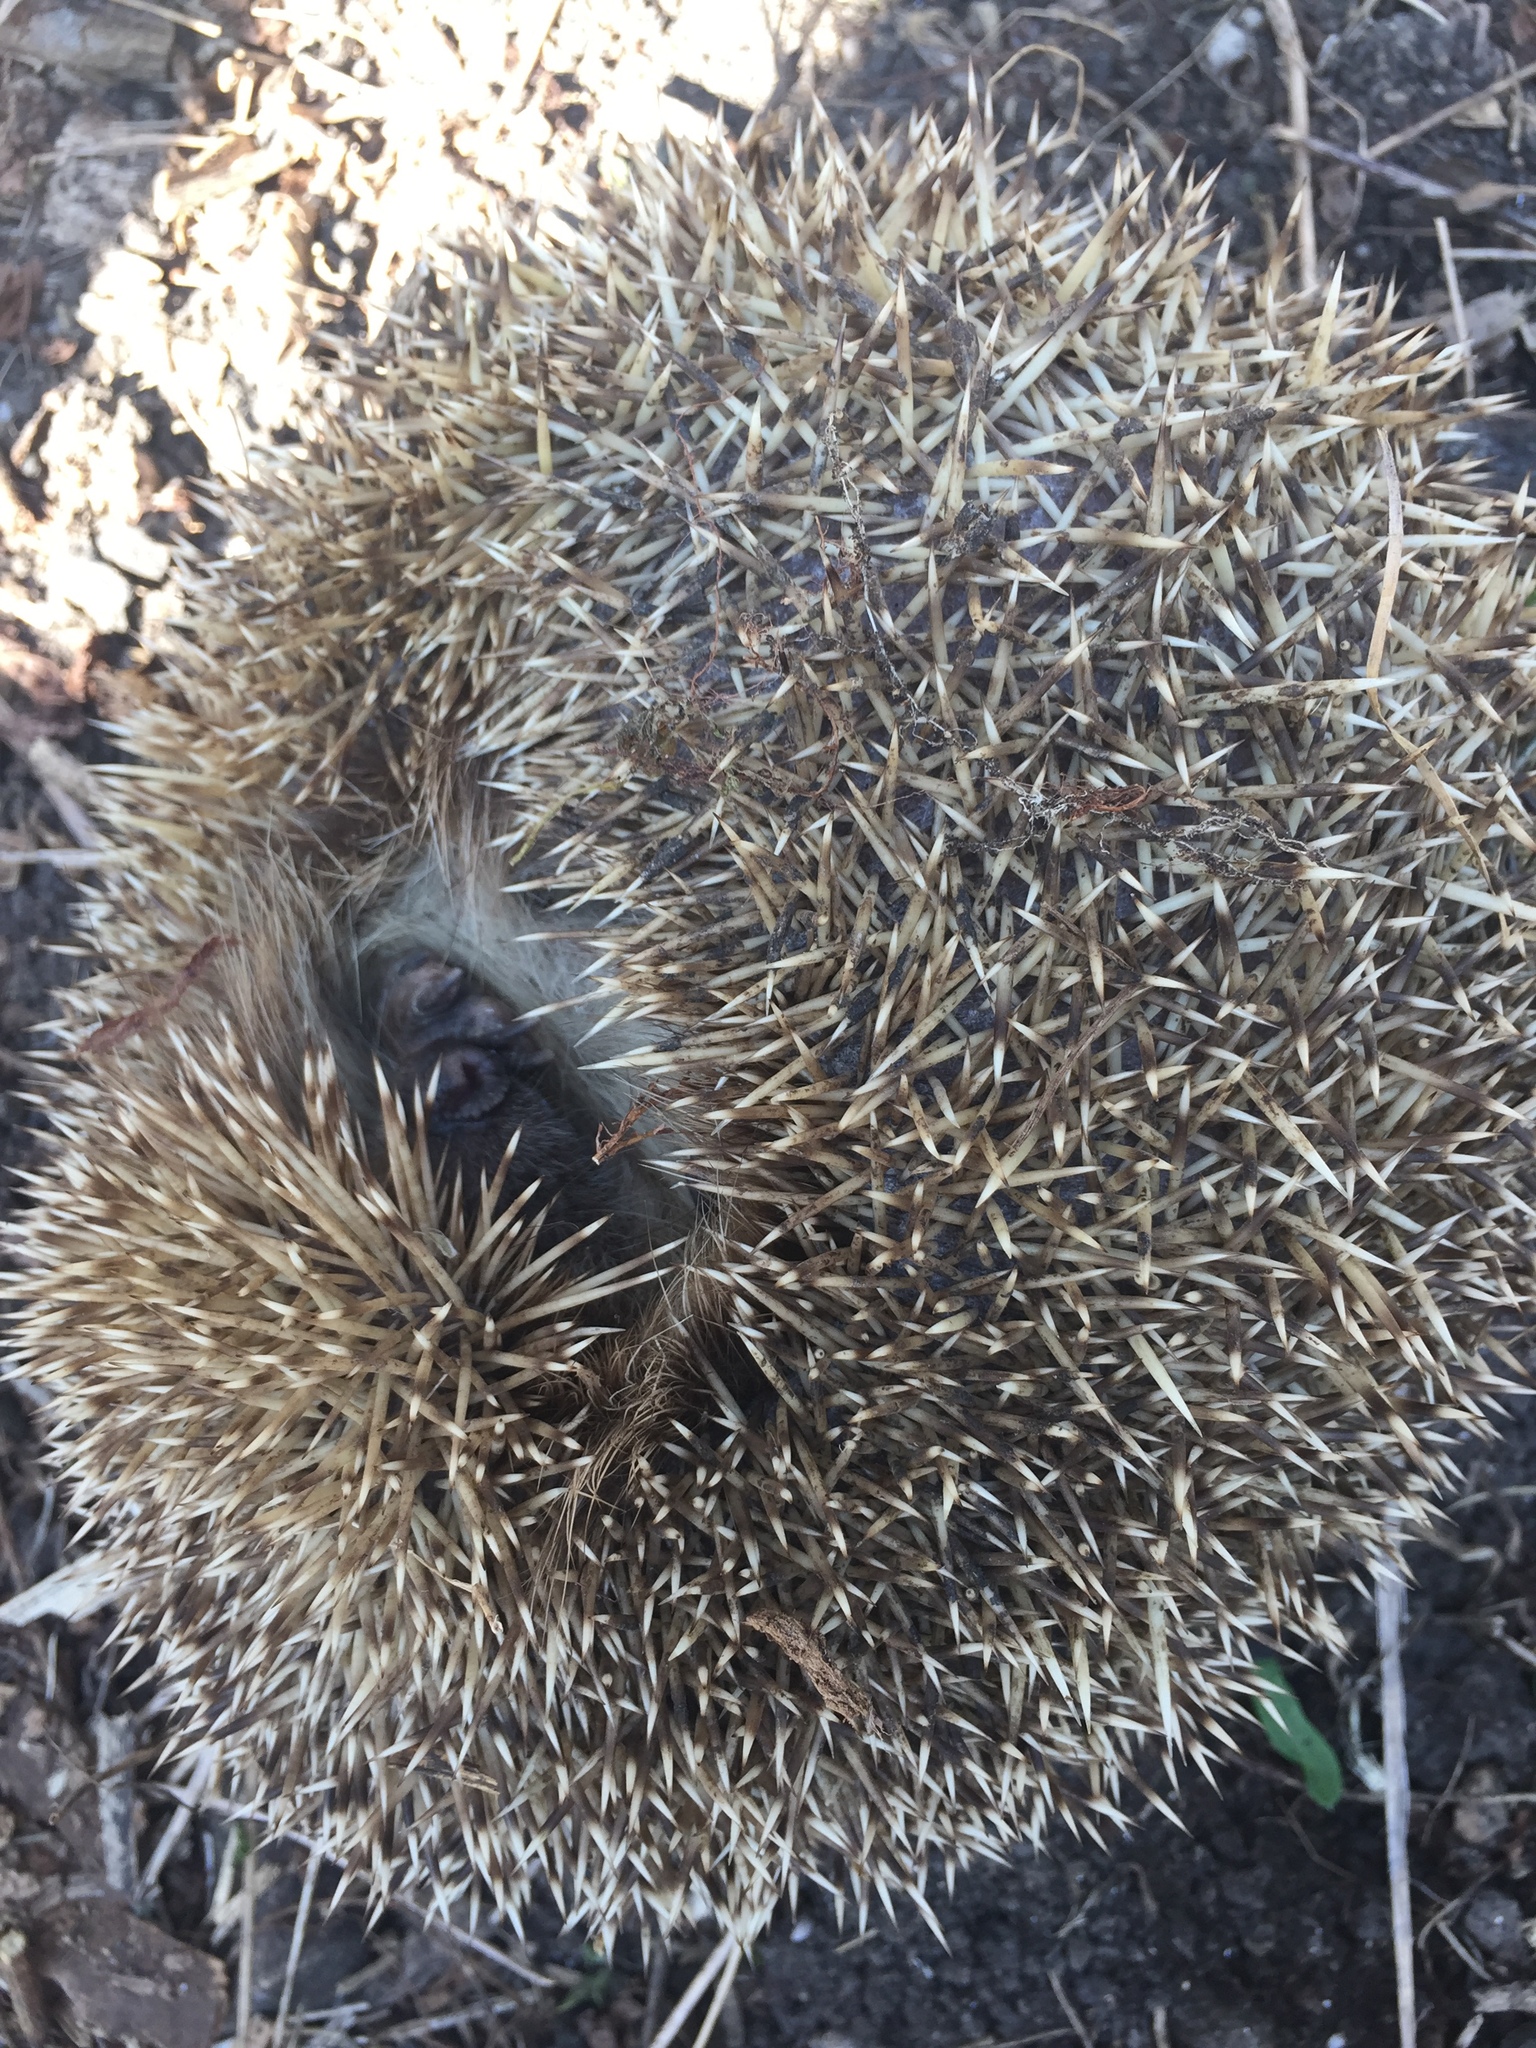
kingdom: Animalia
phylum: Chordata
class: Mammalia
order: Erinaceomorpha
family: Erinaceidae
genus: Erinaceus
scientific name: Erinaceus europaeus
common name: West european hedgehog
